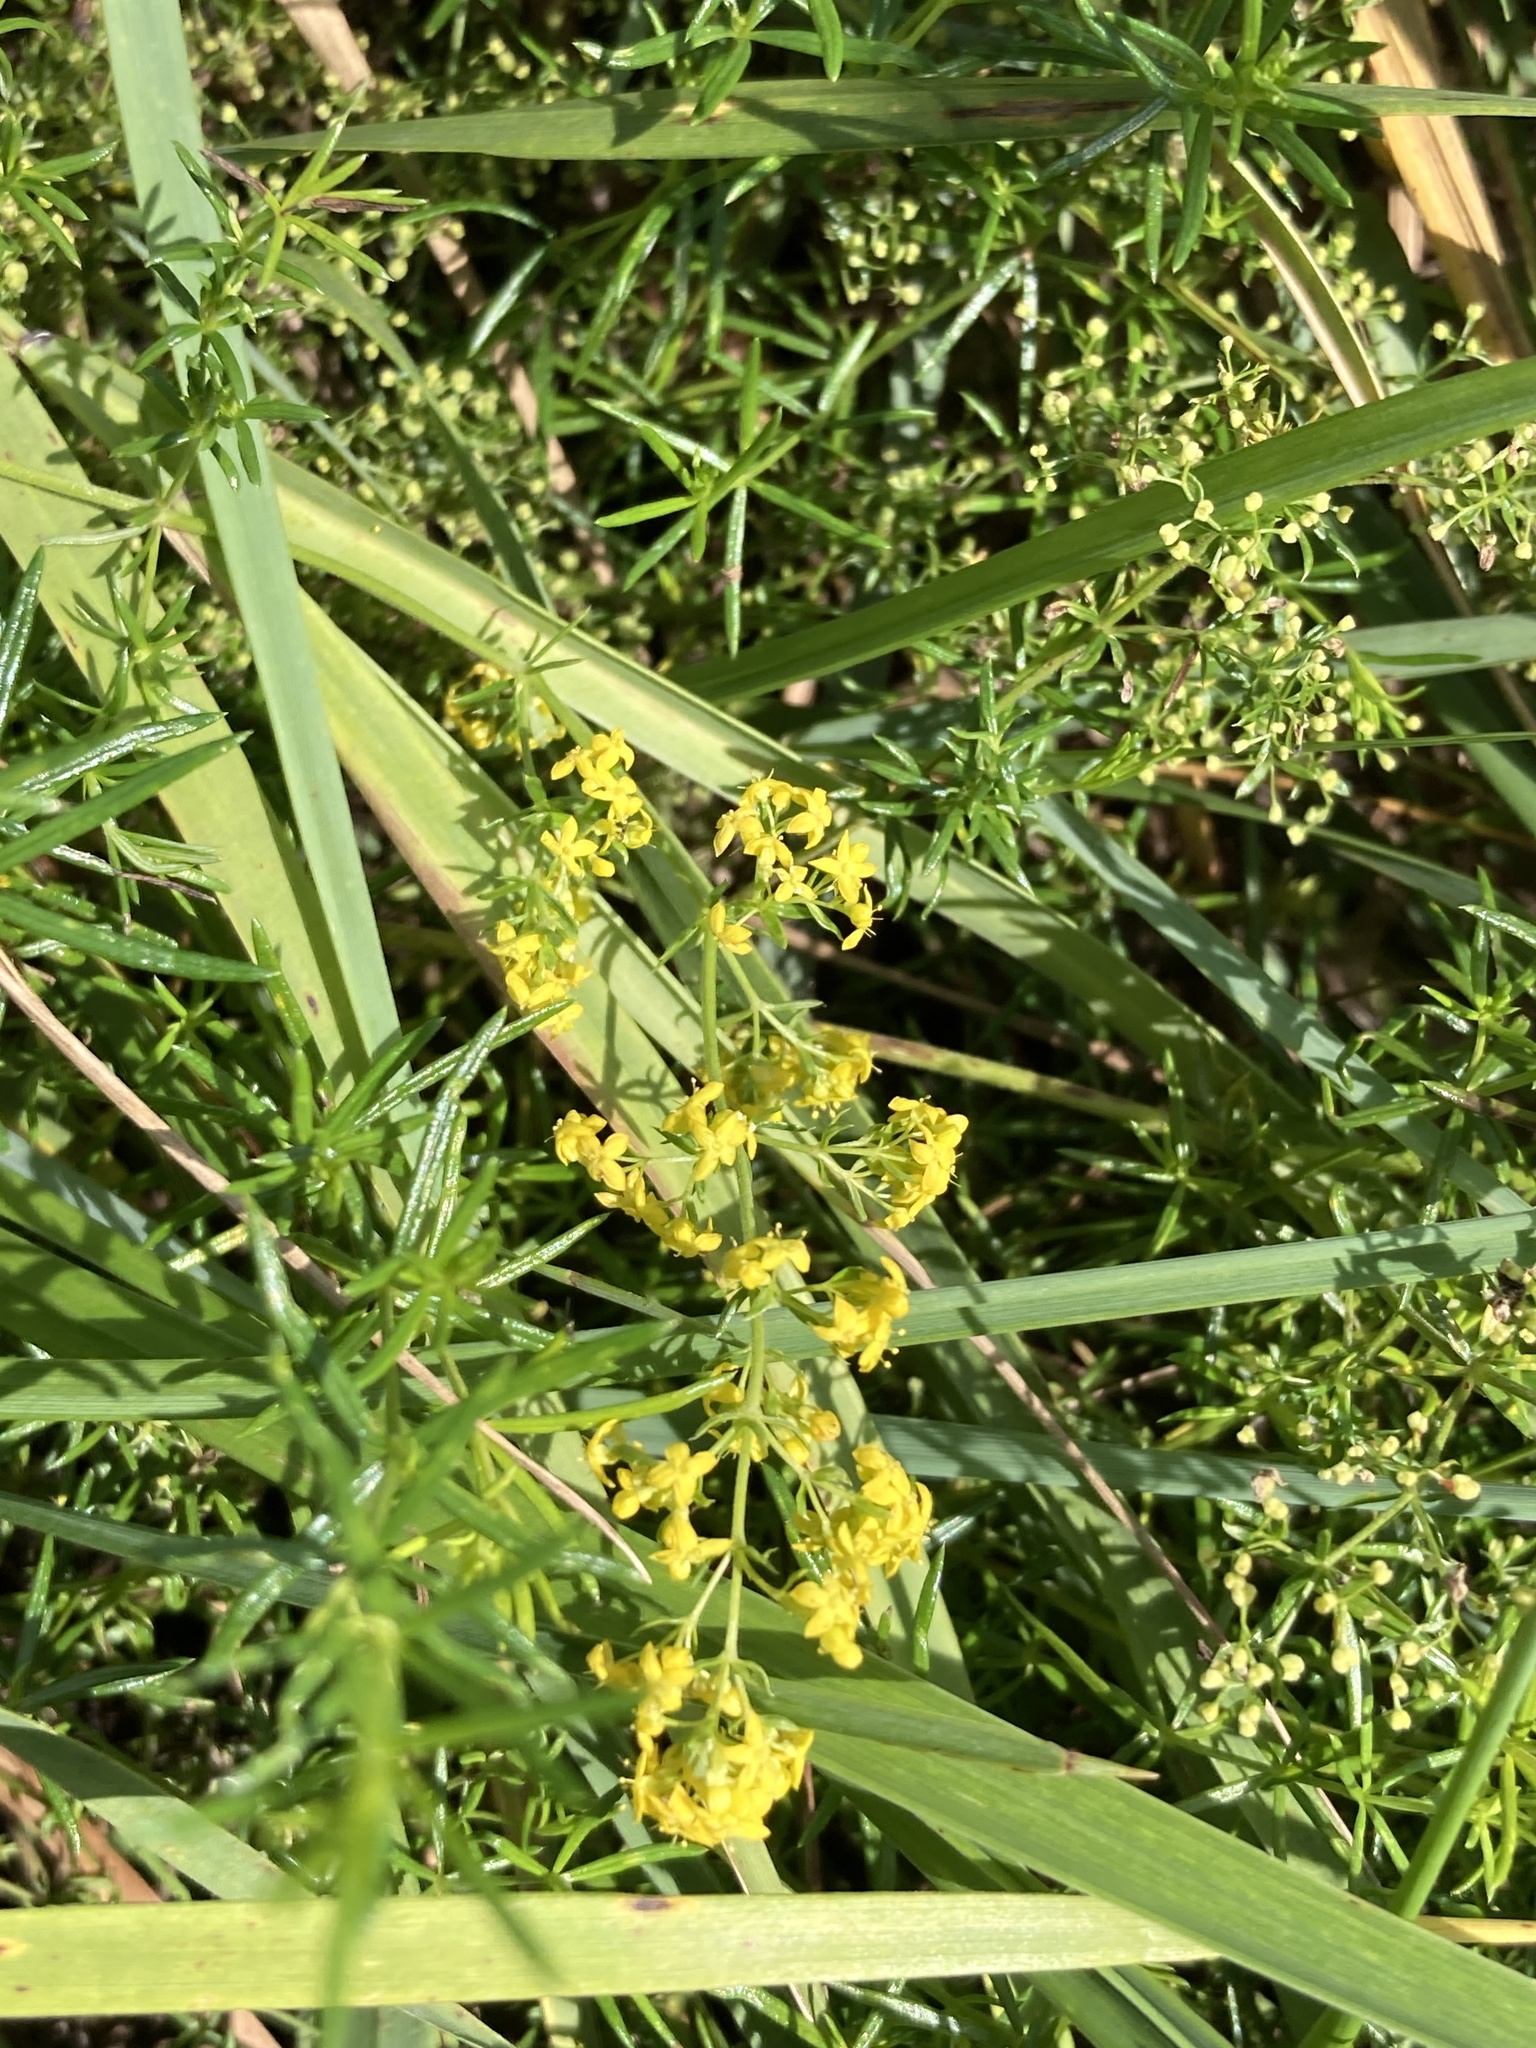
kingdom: Plantae
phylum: Tracheophyta
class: Magnoliopsida
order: Gentianales
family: Rubiaceae
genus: Galium
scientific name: Galium verum
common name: Lady's bedstraw
